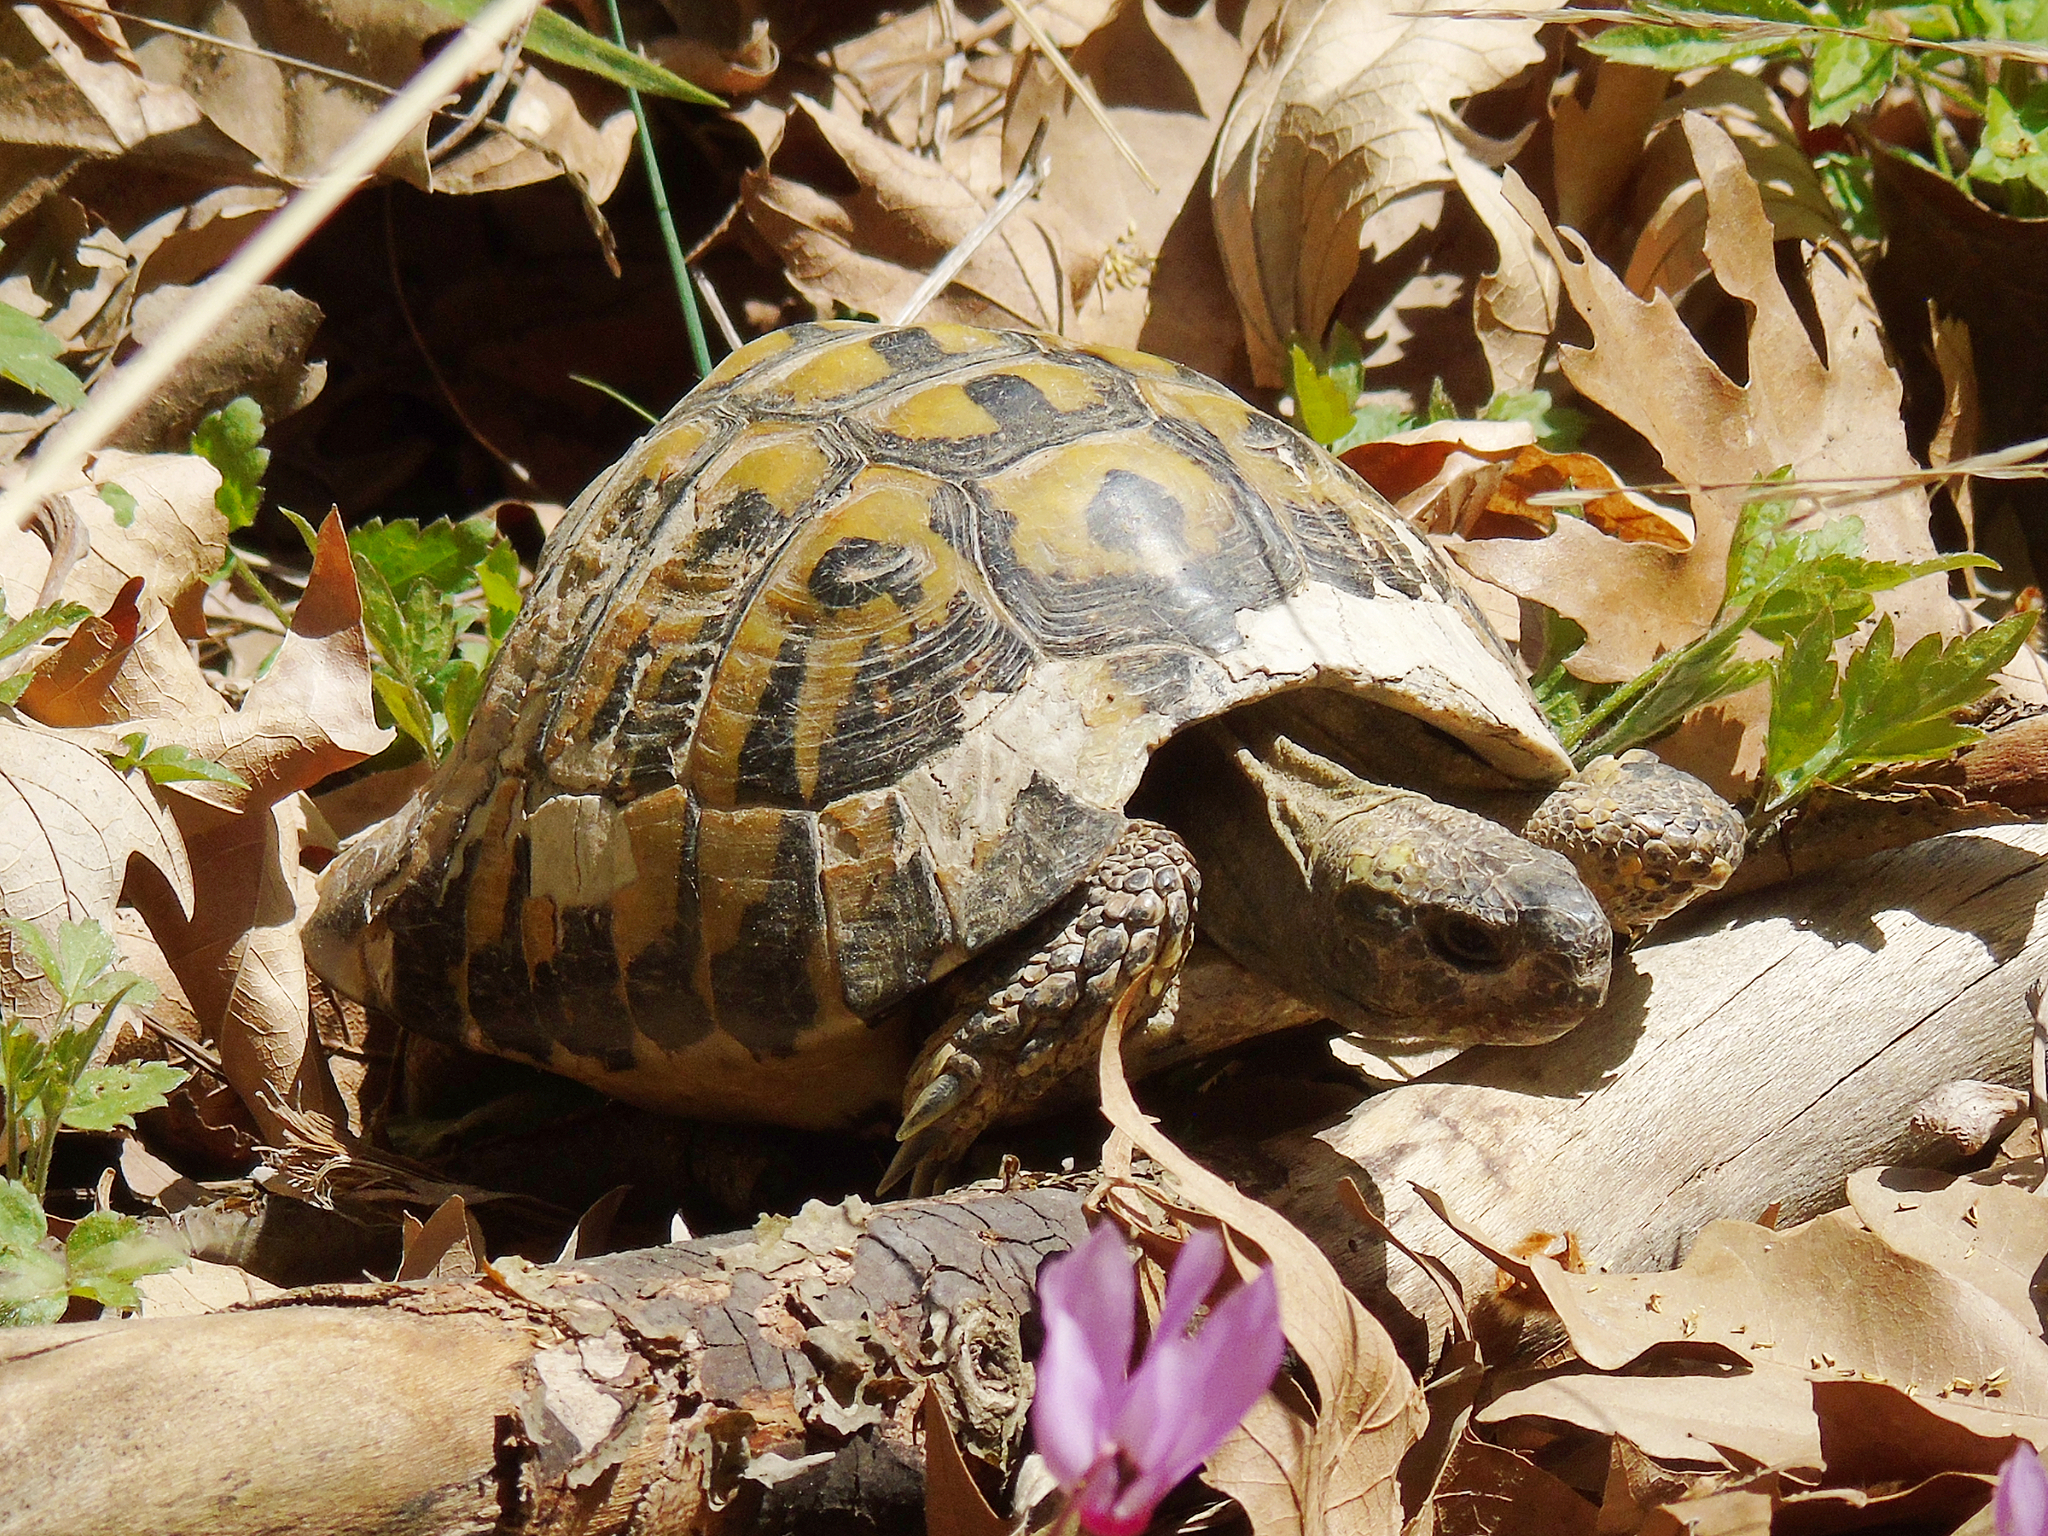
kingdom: Animalia
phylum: Chordata
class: Testudines
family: Testudinidae
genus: Testudo
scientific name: Testudo hermanni
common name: Hermann's tortoise
